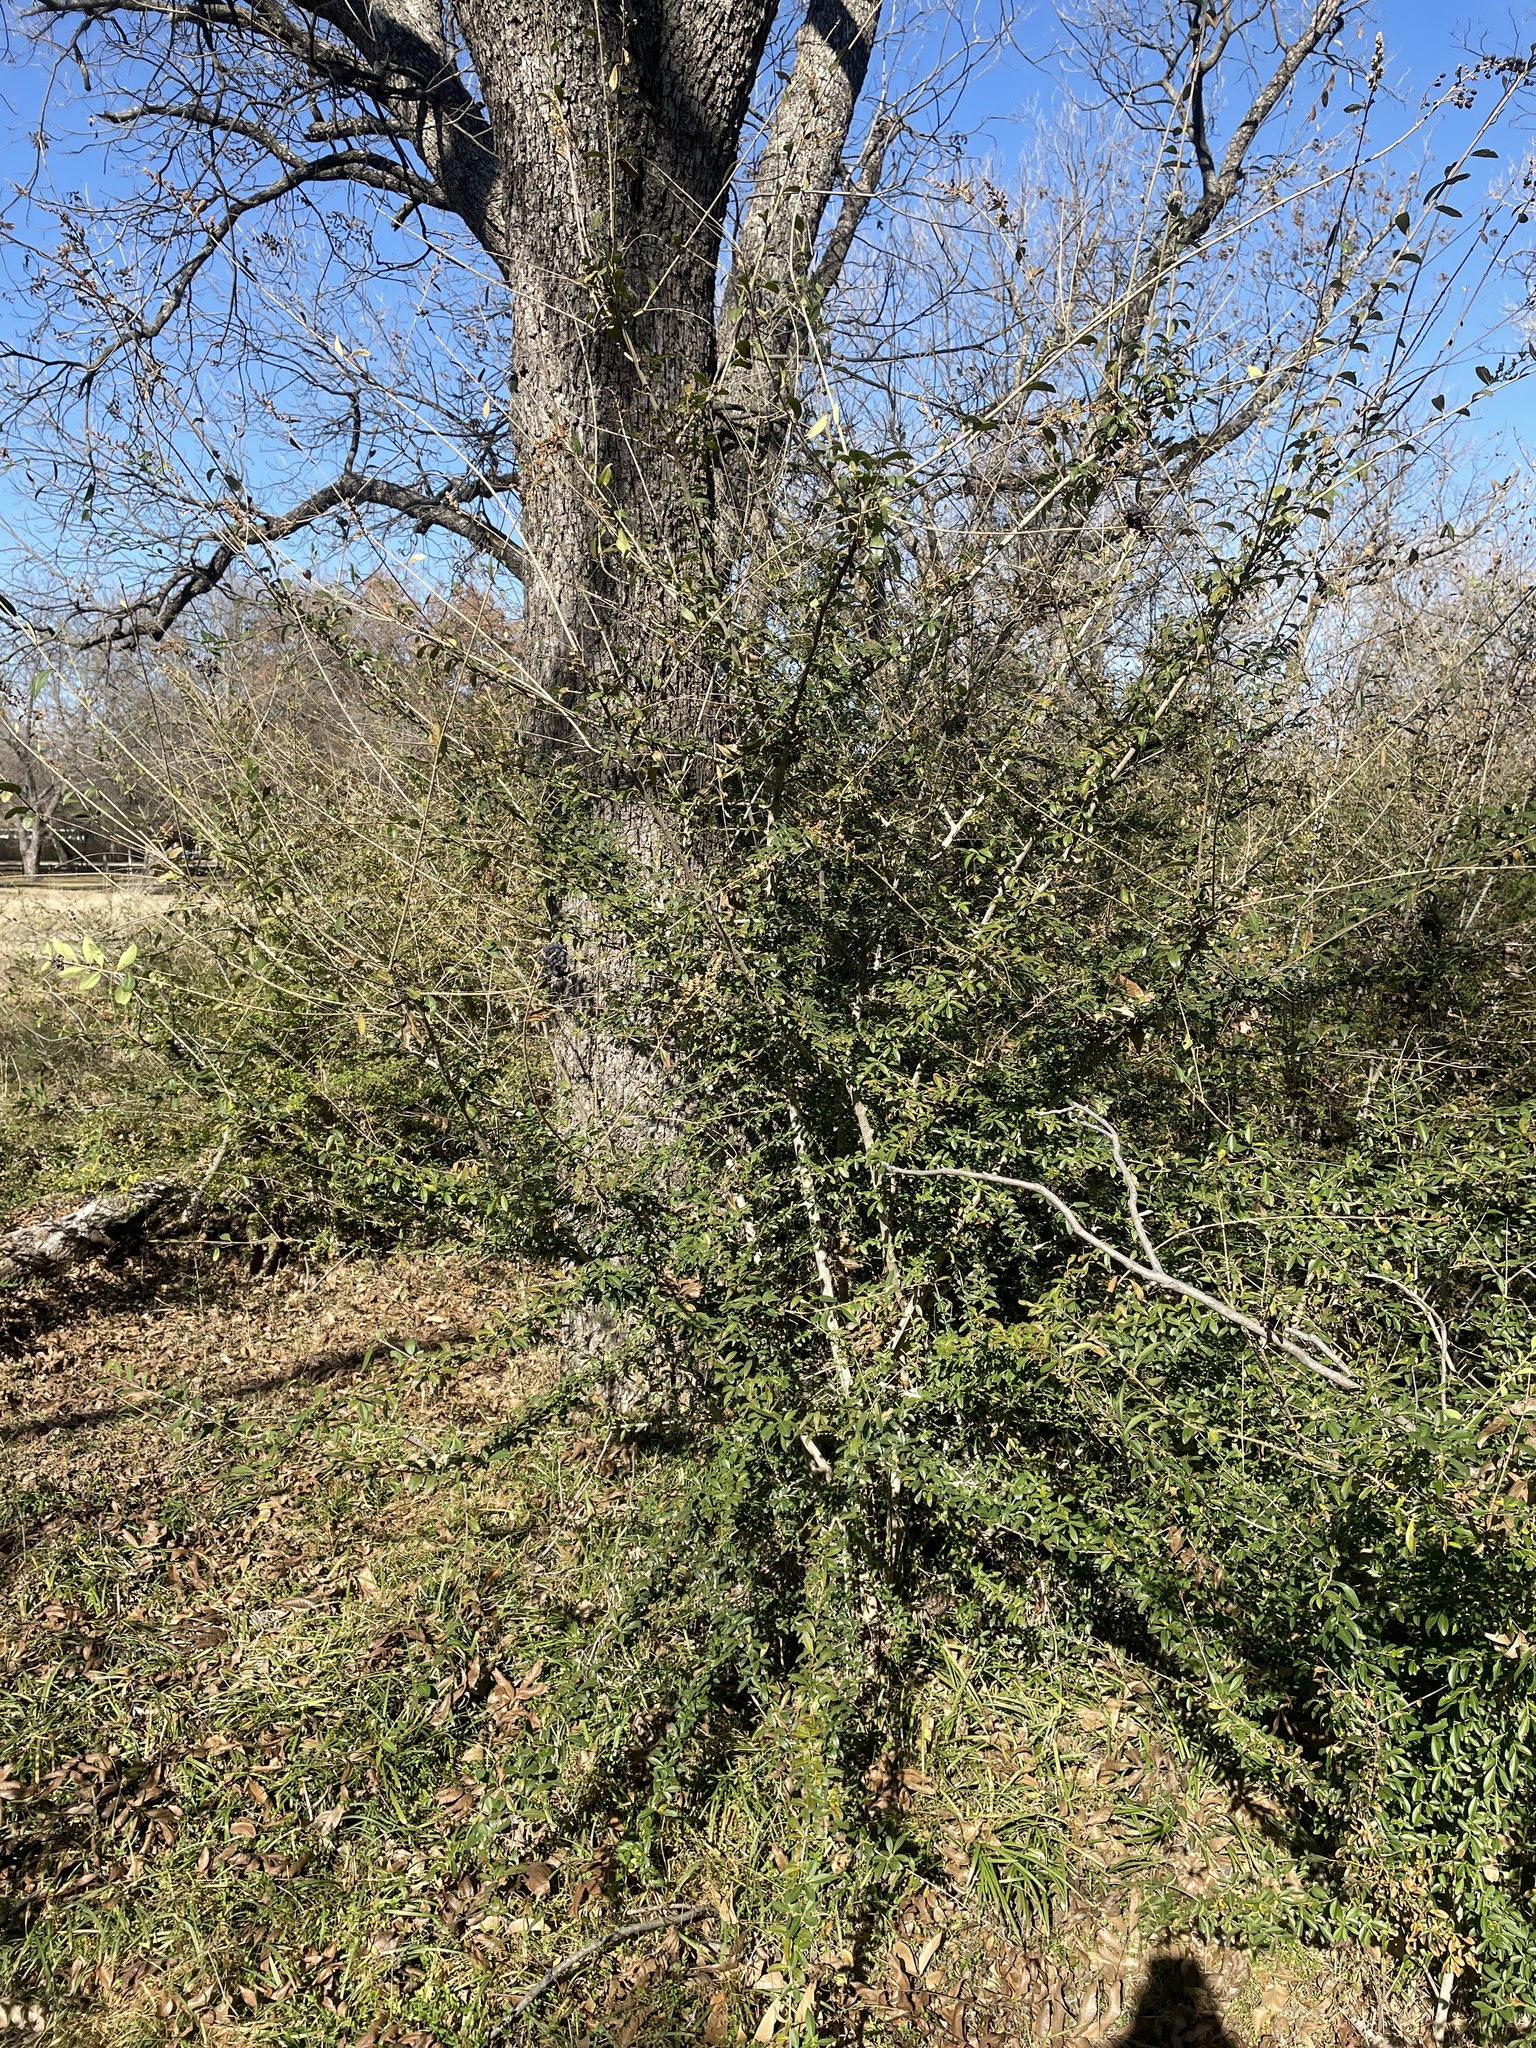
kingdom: Plantae
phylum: Tracheophyta
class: Magnoliopsida
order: Lamiales
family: Oleaceae
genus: Ligustrum
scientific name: Ligustrum quihoui
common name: Waxyleaf privet
